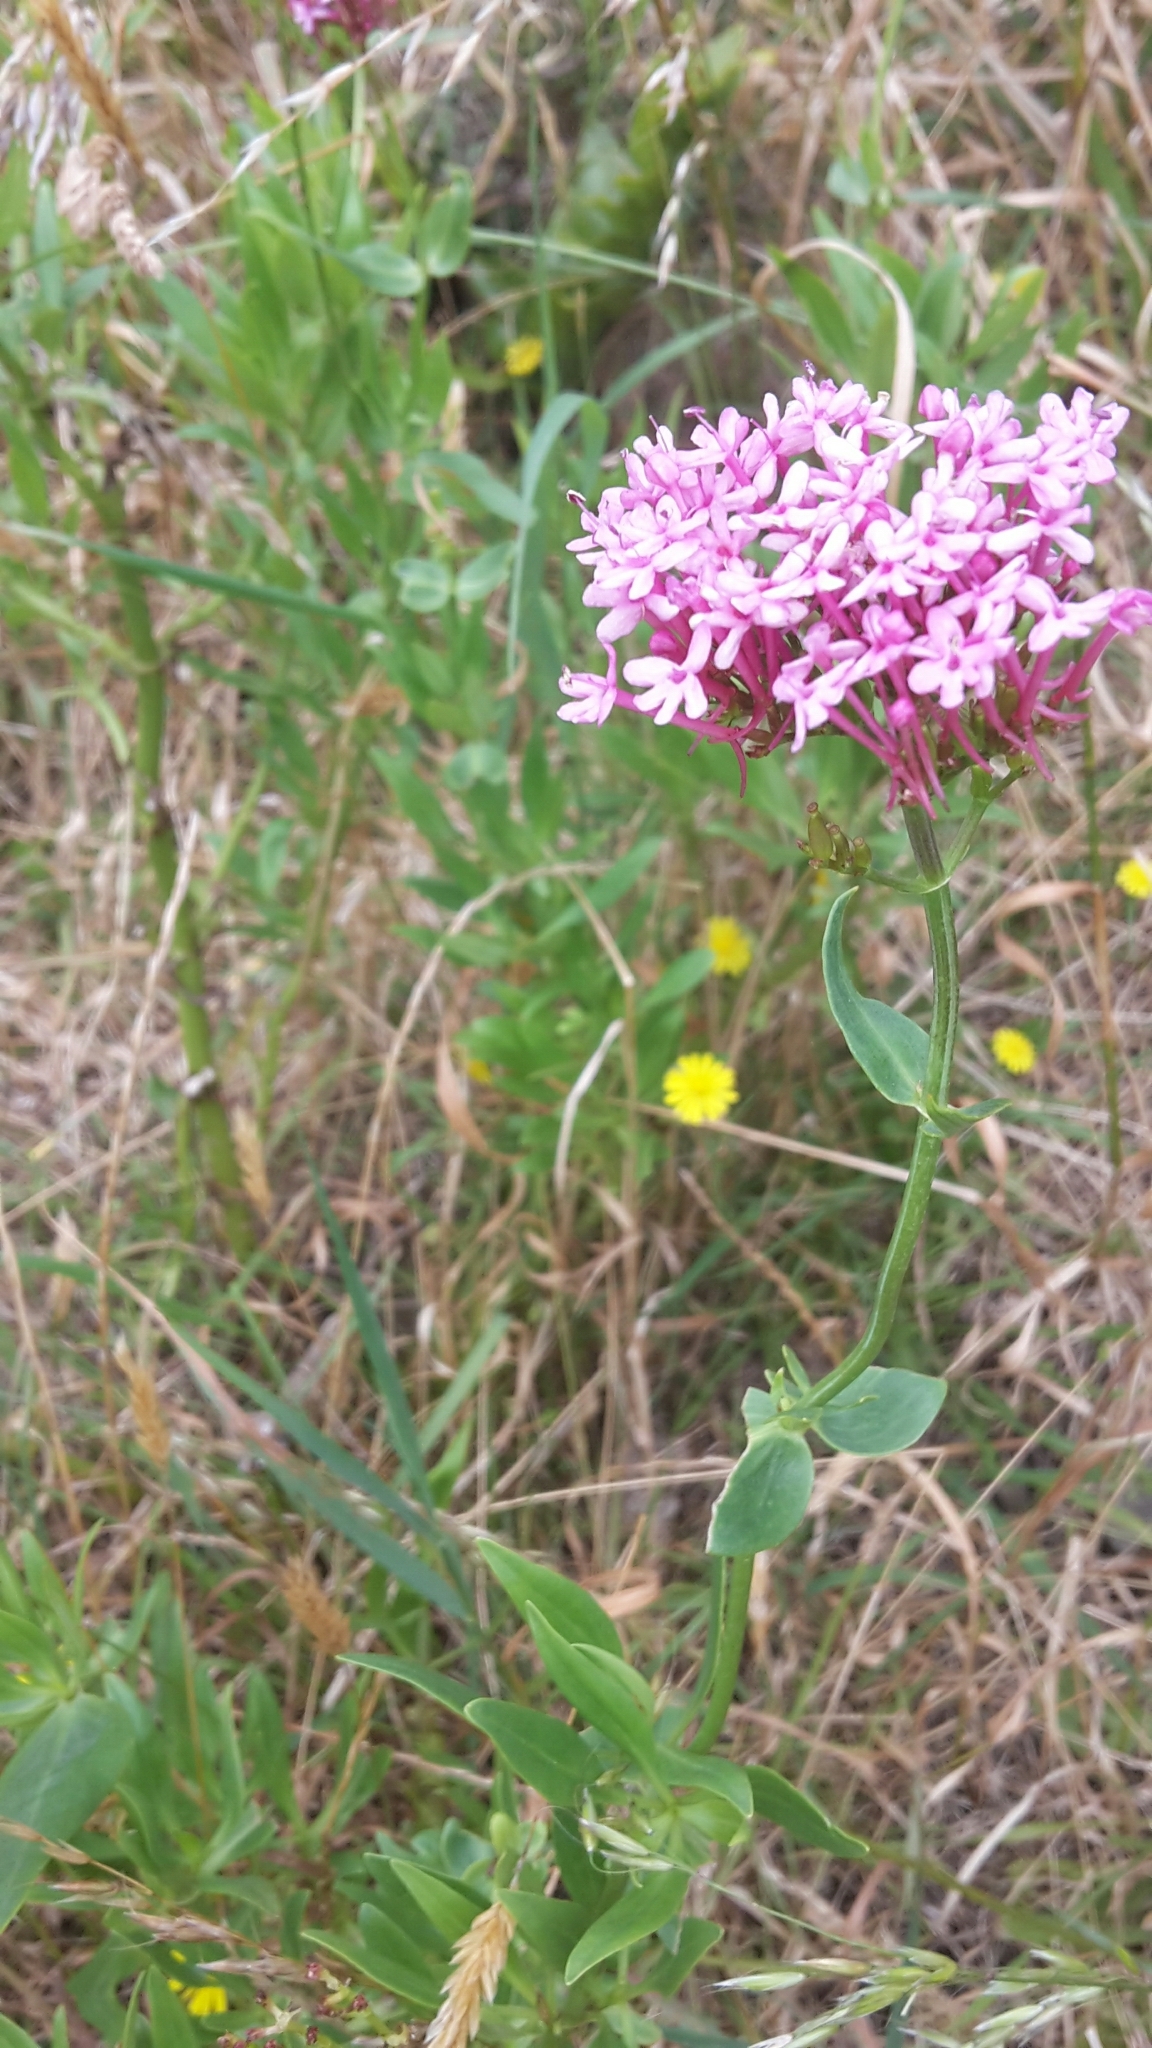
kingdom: Plantae
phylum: Tracheophyta
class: Magnoliopsida
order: Dipsacales
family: Caprifoliaceae
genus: Centranthus
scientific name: Centranthus ruber
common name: Red valerian
